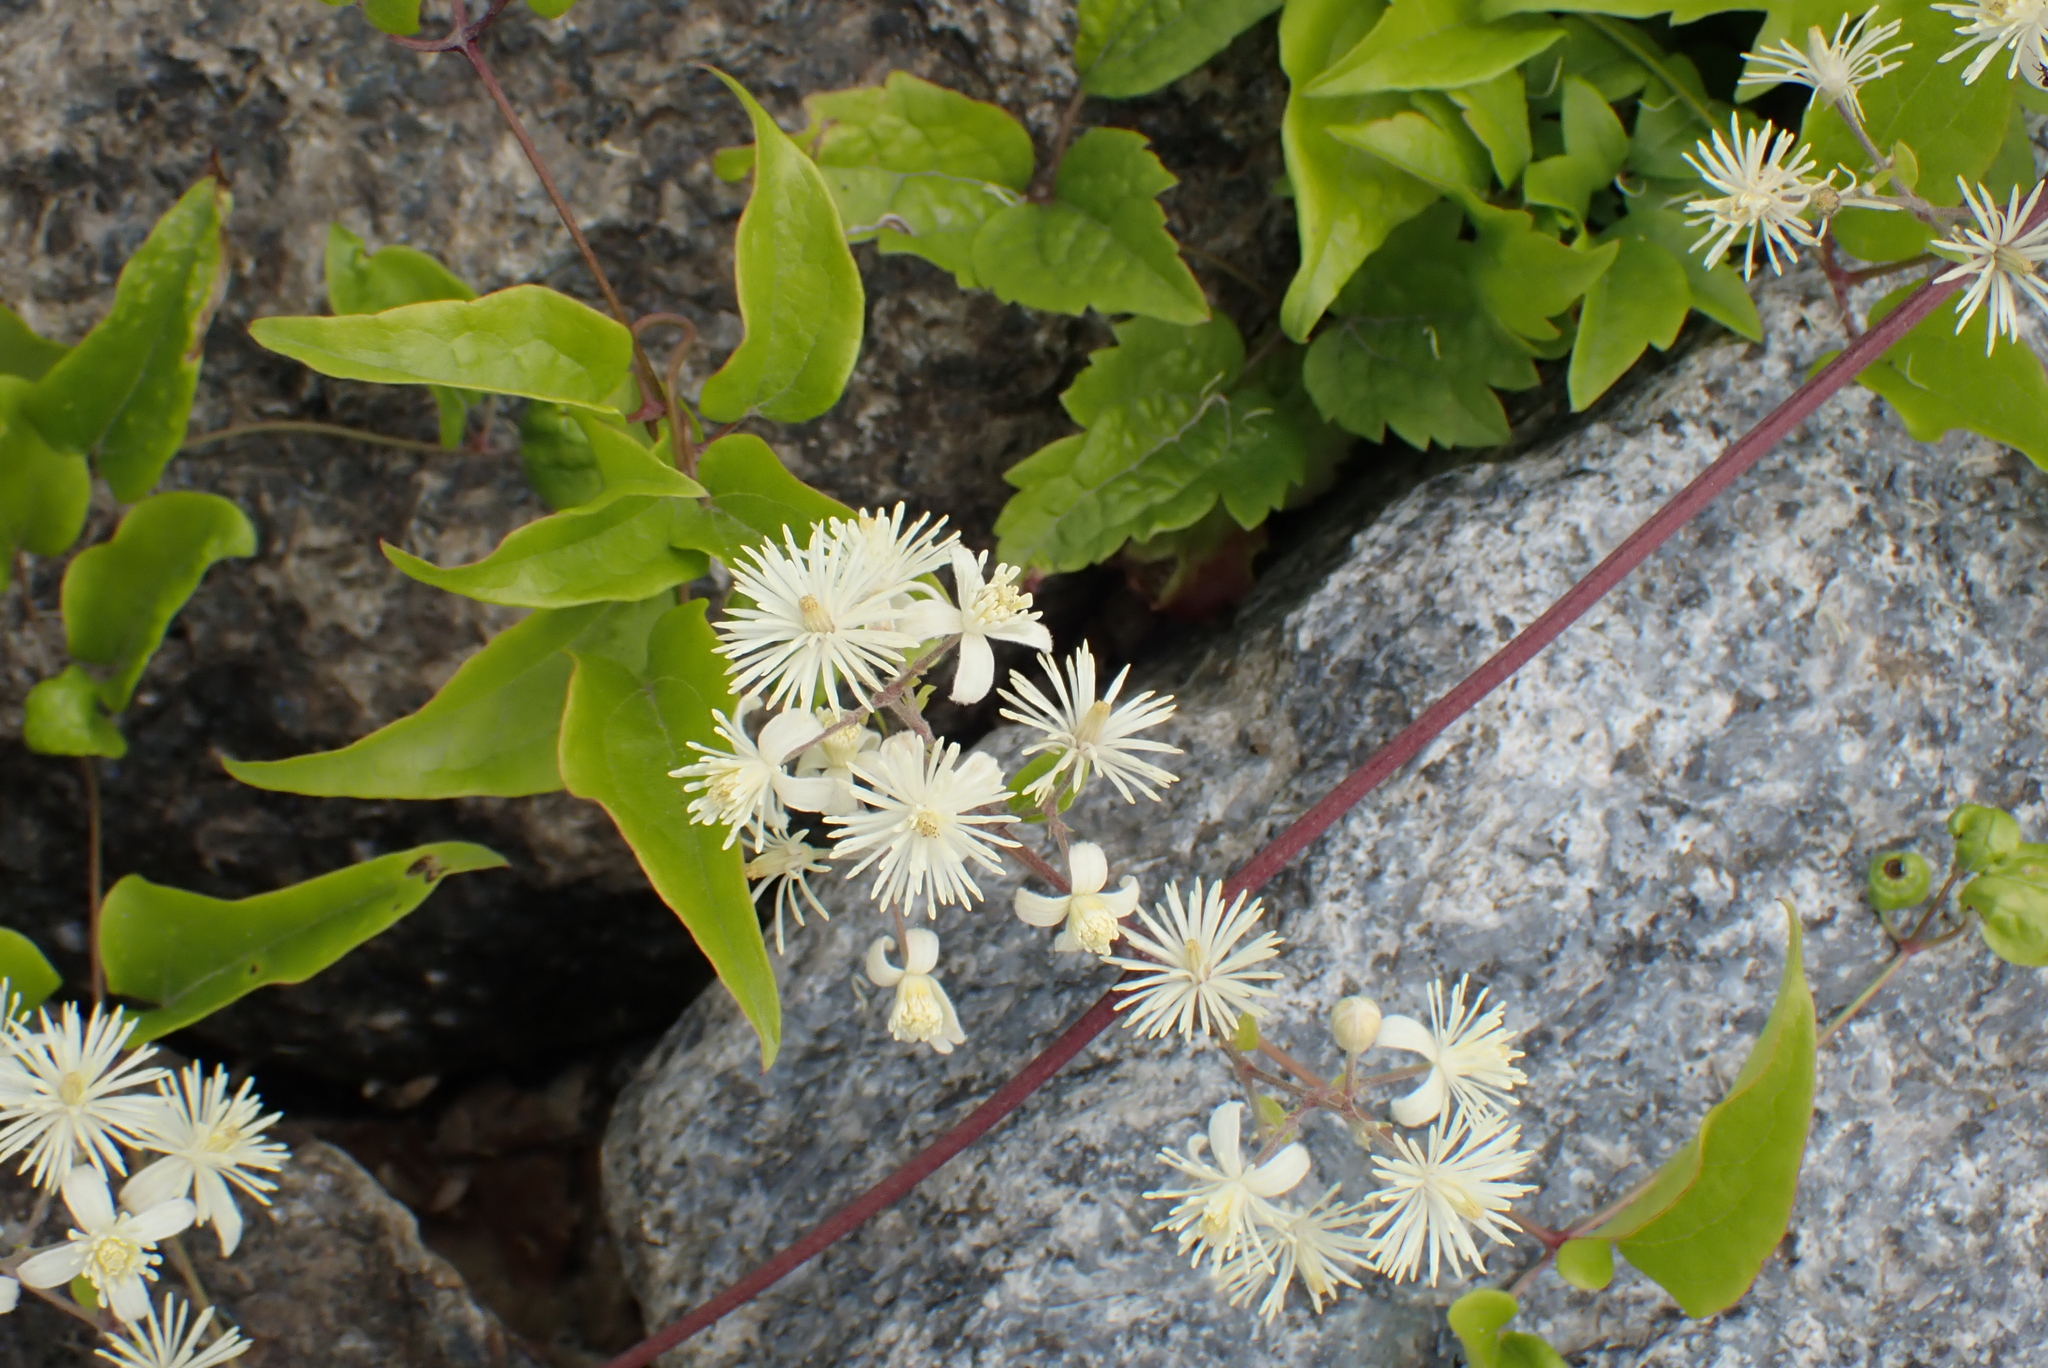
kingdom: Plantae
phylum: Tracheophyta
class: Magnoliopsida
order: Ranunculales
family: Ranunculaceae
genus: Clematis
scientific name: Clematis vitalba
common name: Evergreen clematis
